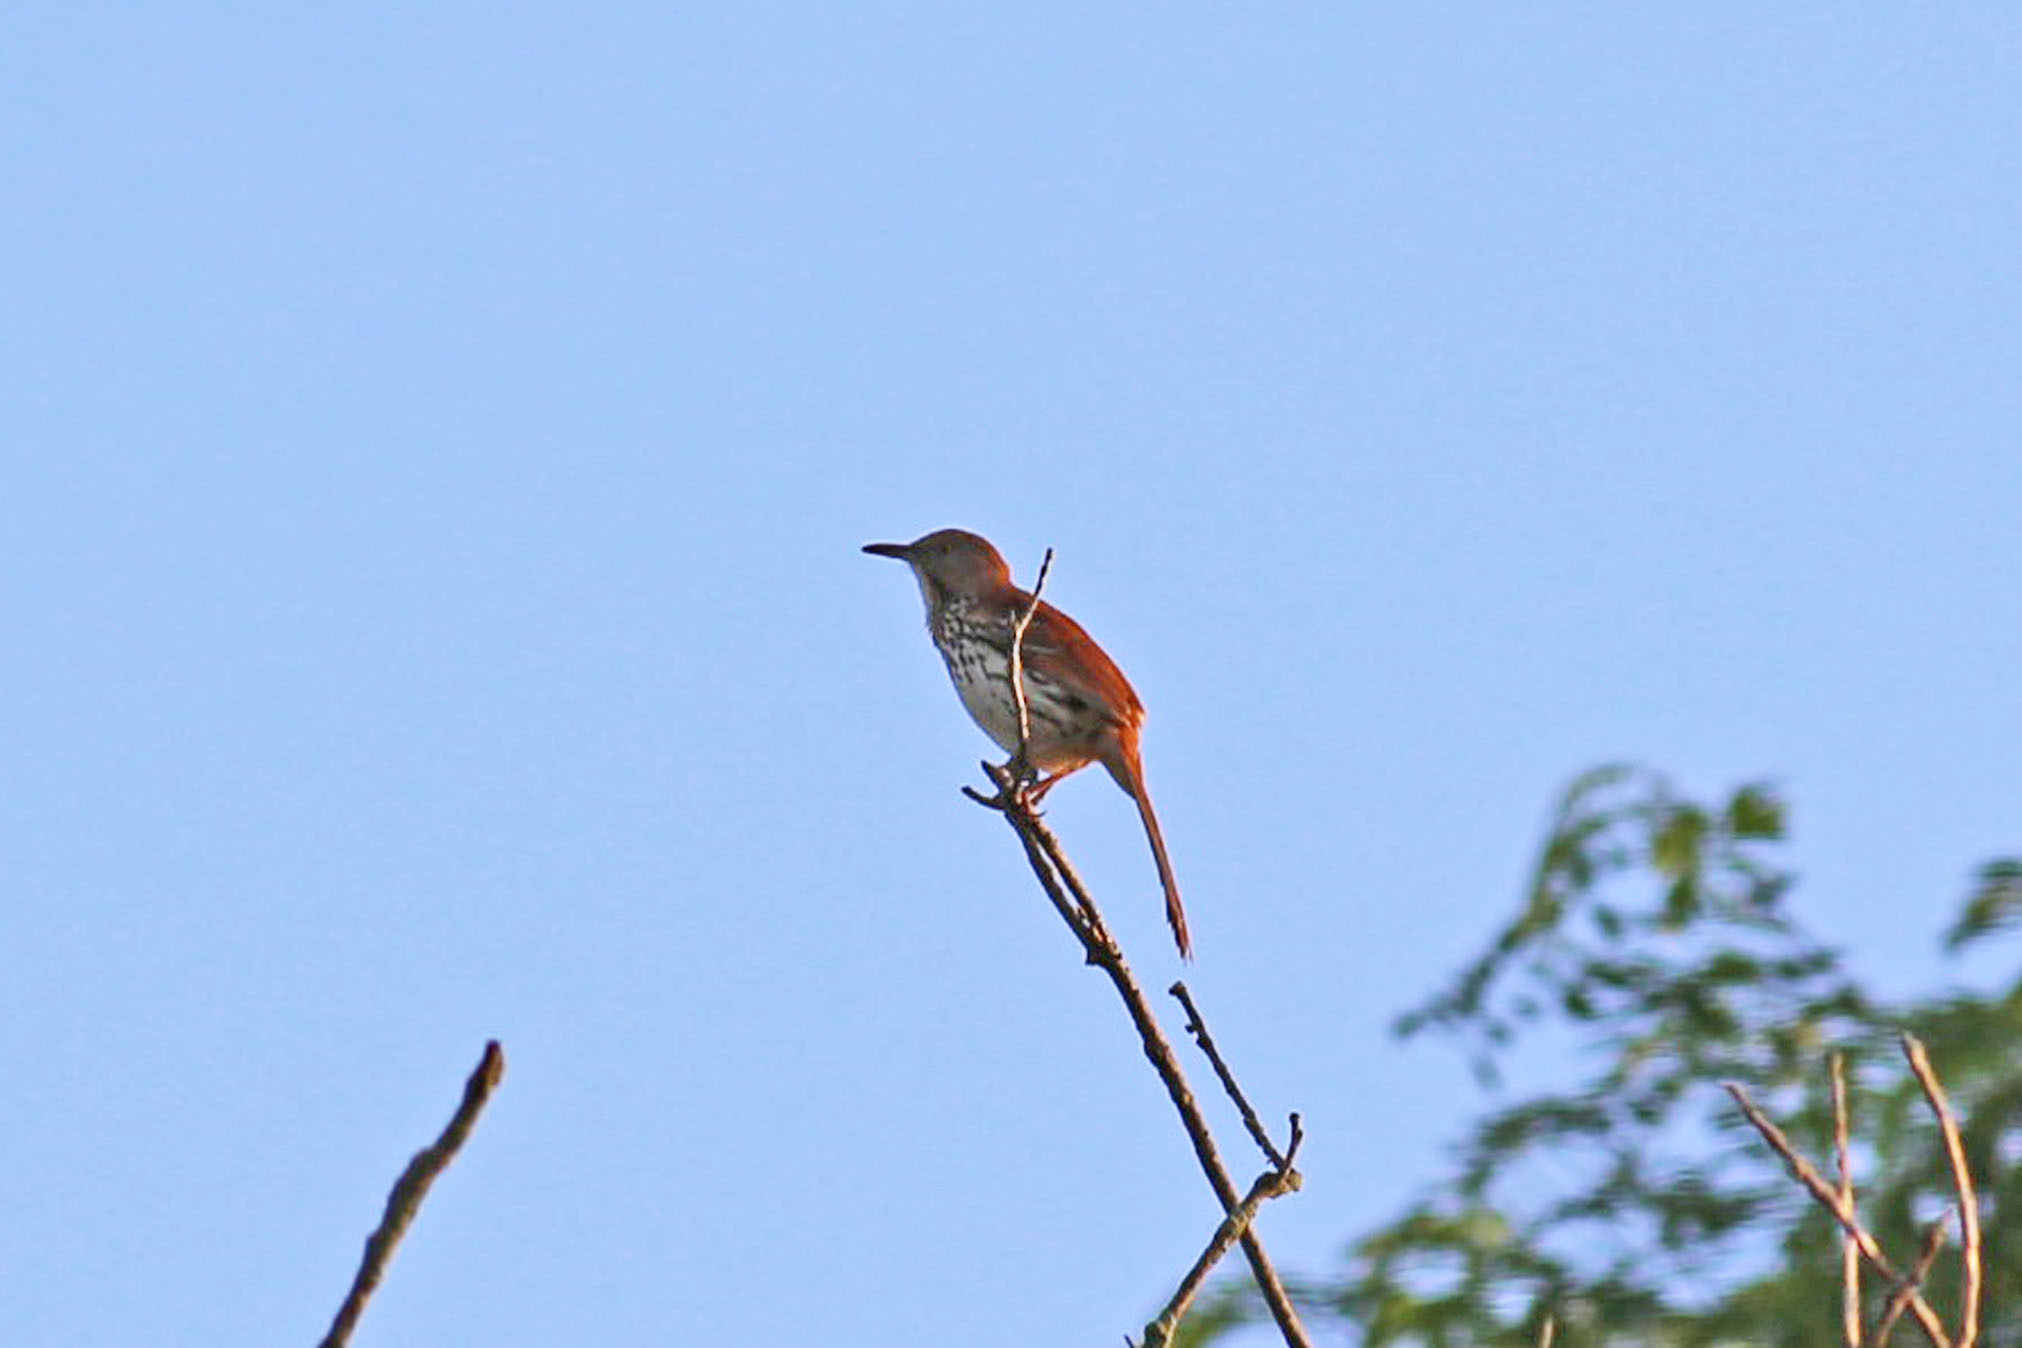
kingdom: Animalia
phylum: Chordata
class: Aves
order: Passeriformes
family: Mimidae
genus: Toxostoma
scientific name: Toxostoma rufum
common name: Brown thrasher
